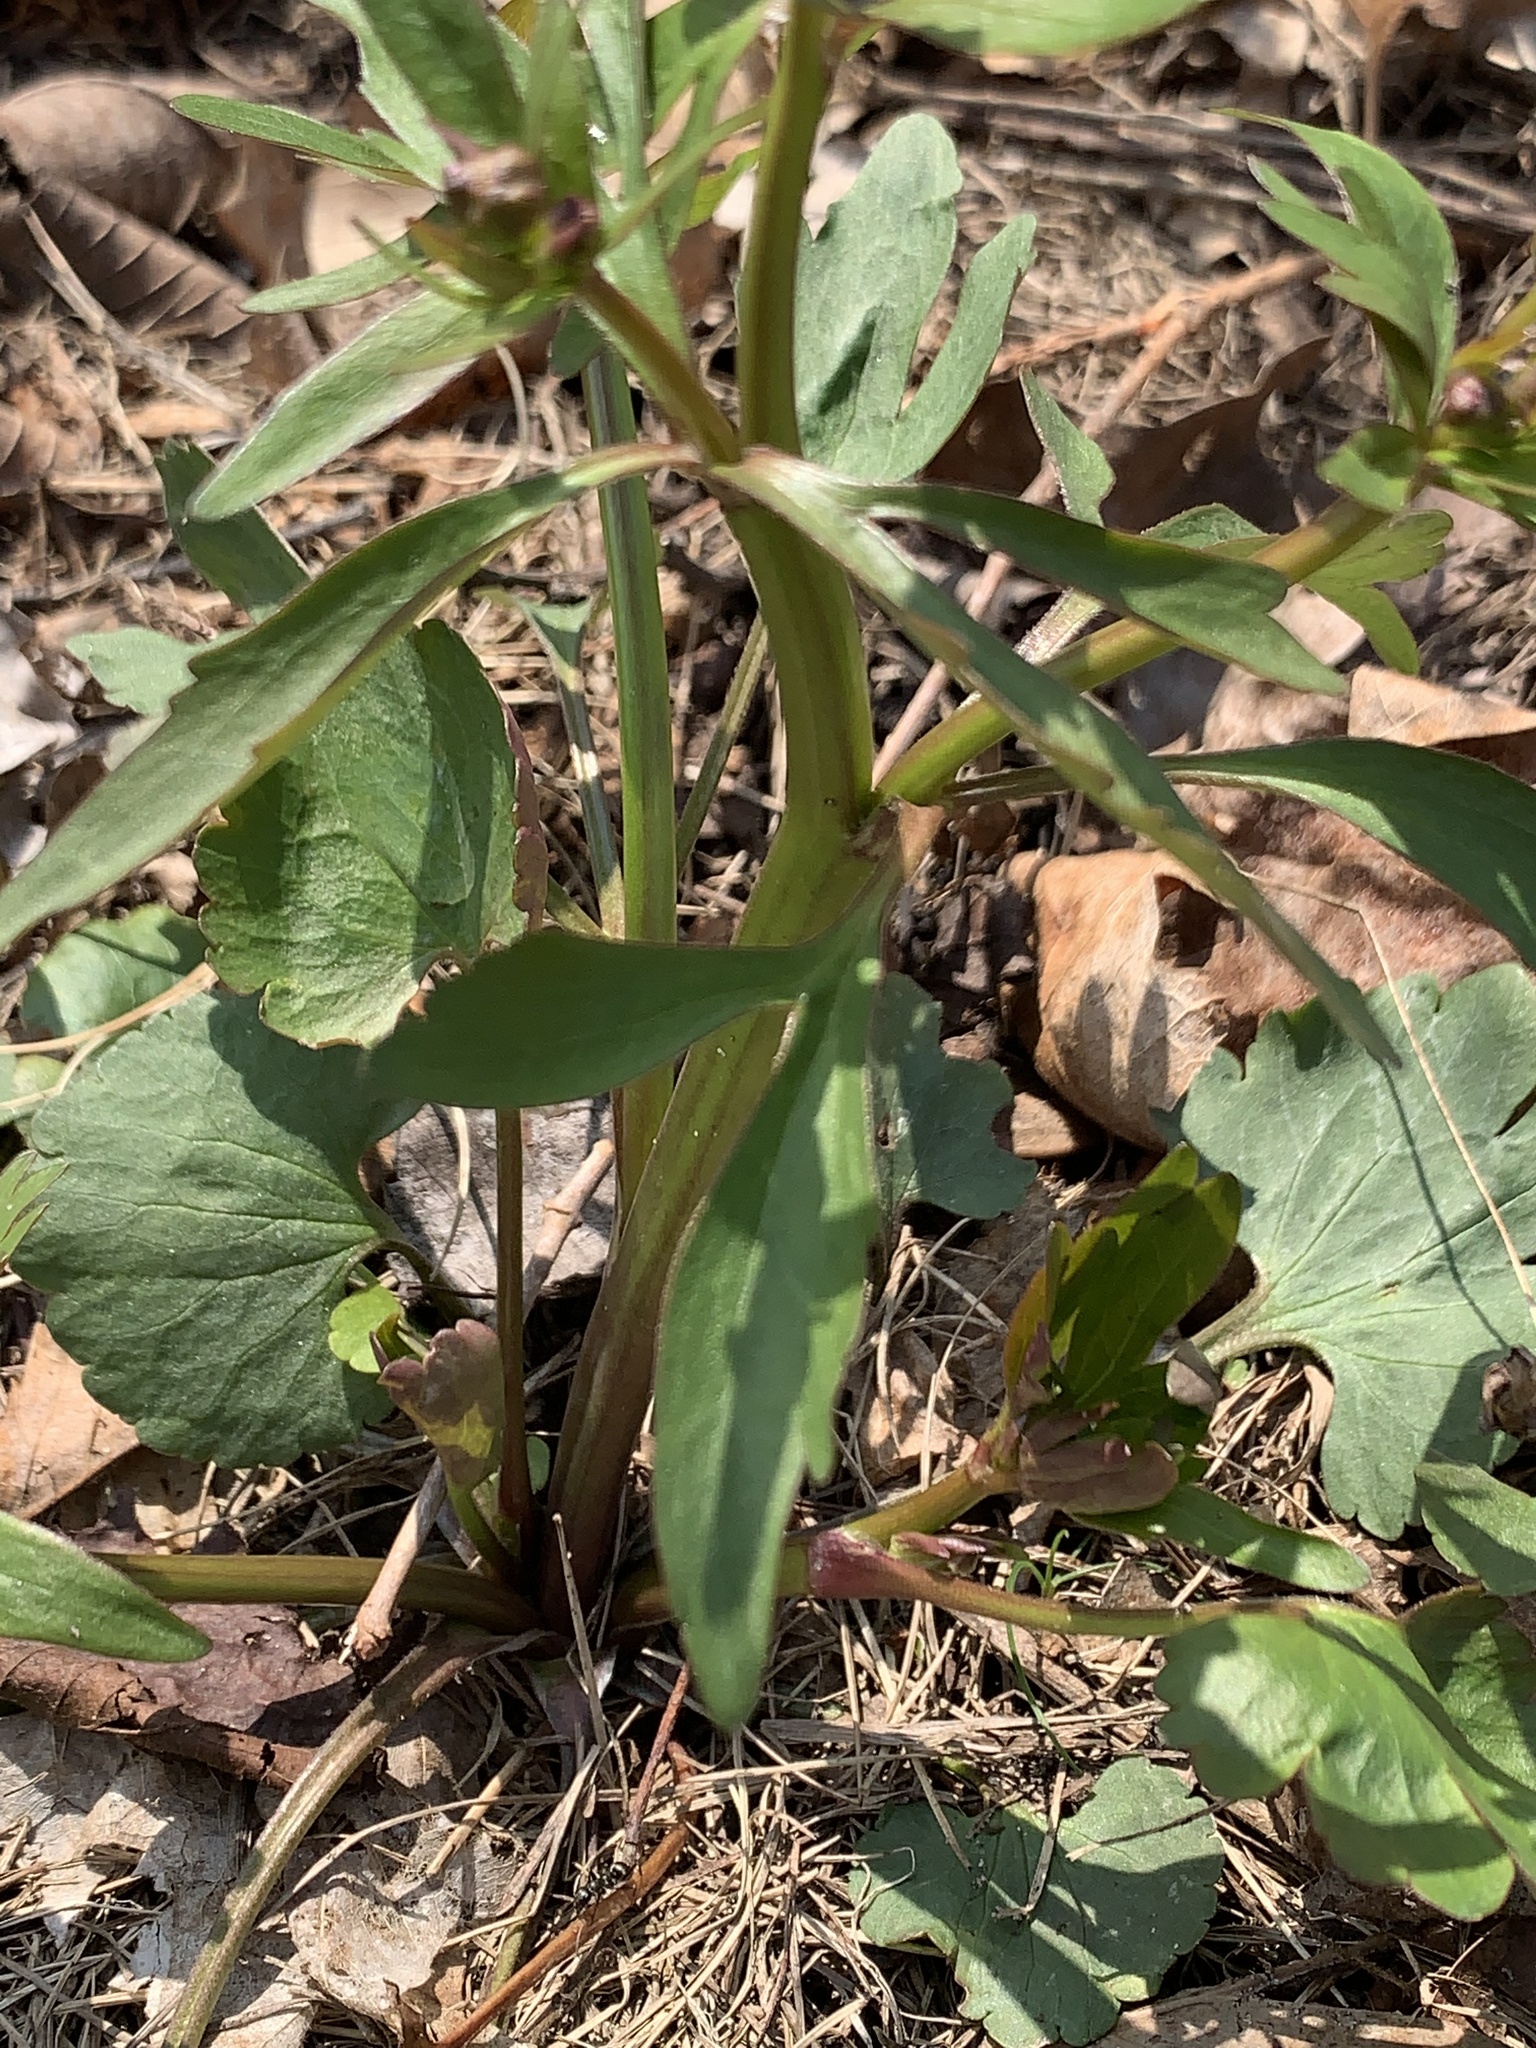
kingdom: Plantae
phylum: Tracheophyta
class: Magnoliopsida
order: Ranunculales
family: Ranunculaceae
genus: Ranunculus
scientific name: Ranunculus abortivus
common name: Early wood buttercup
